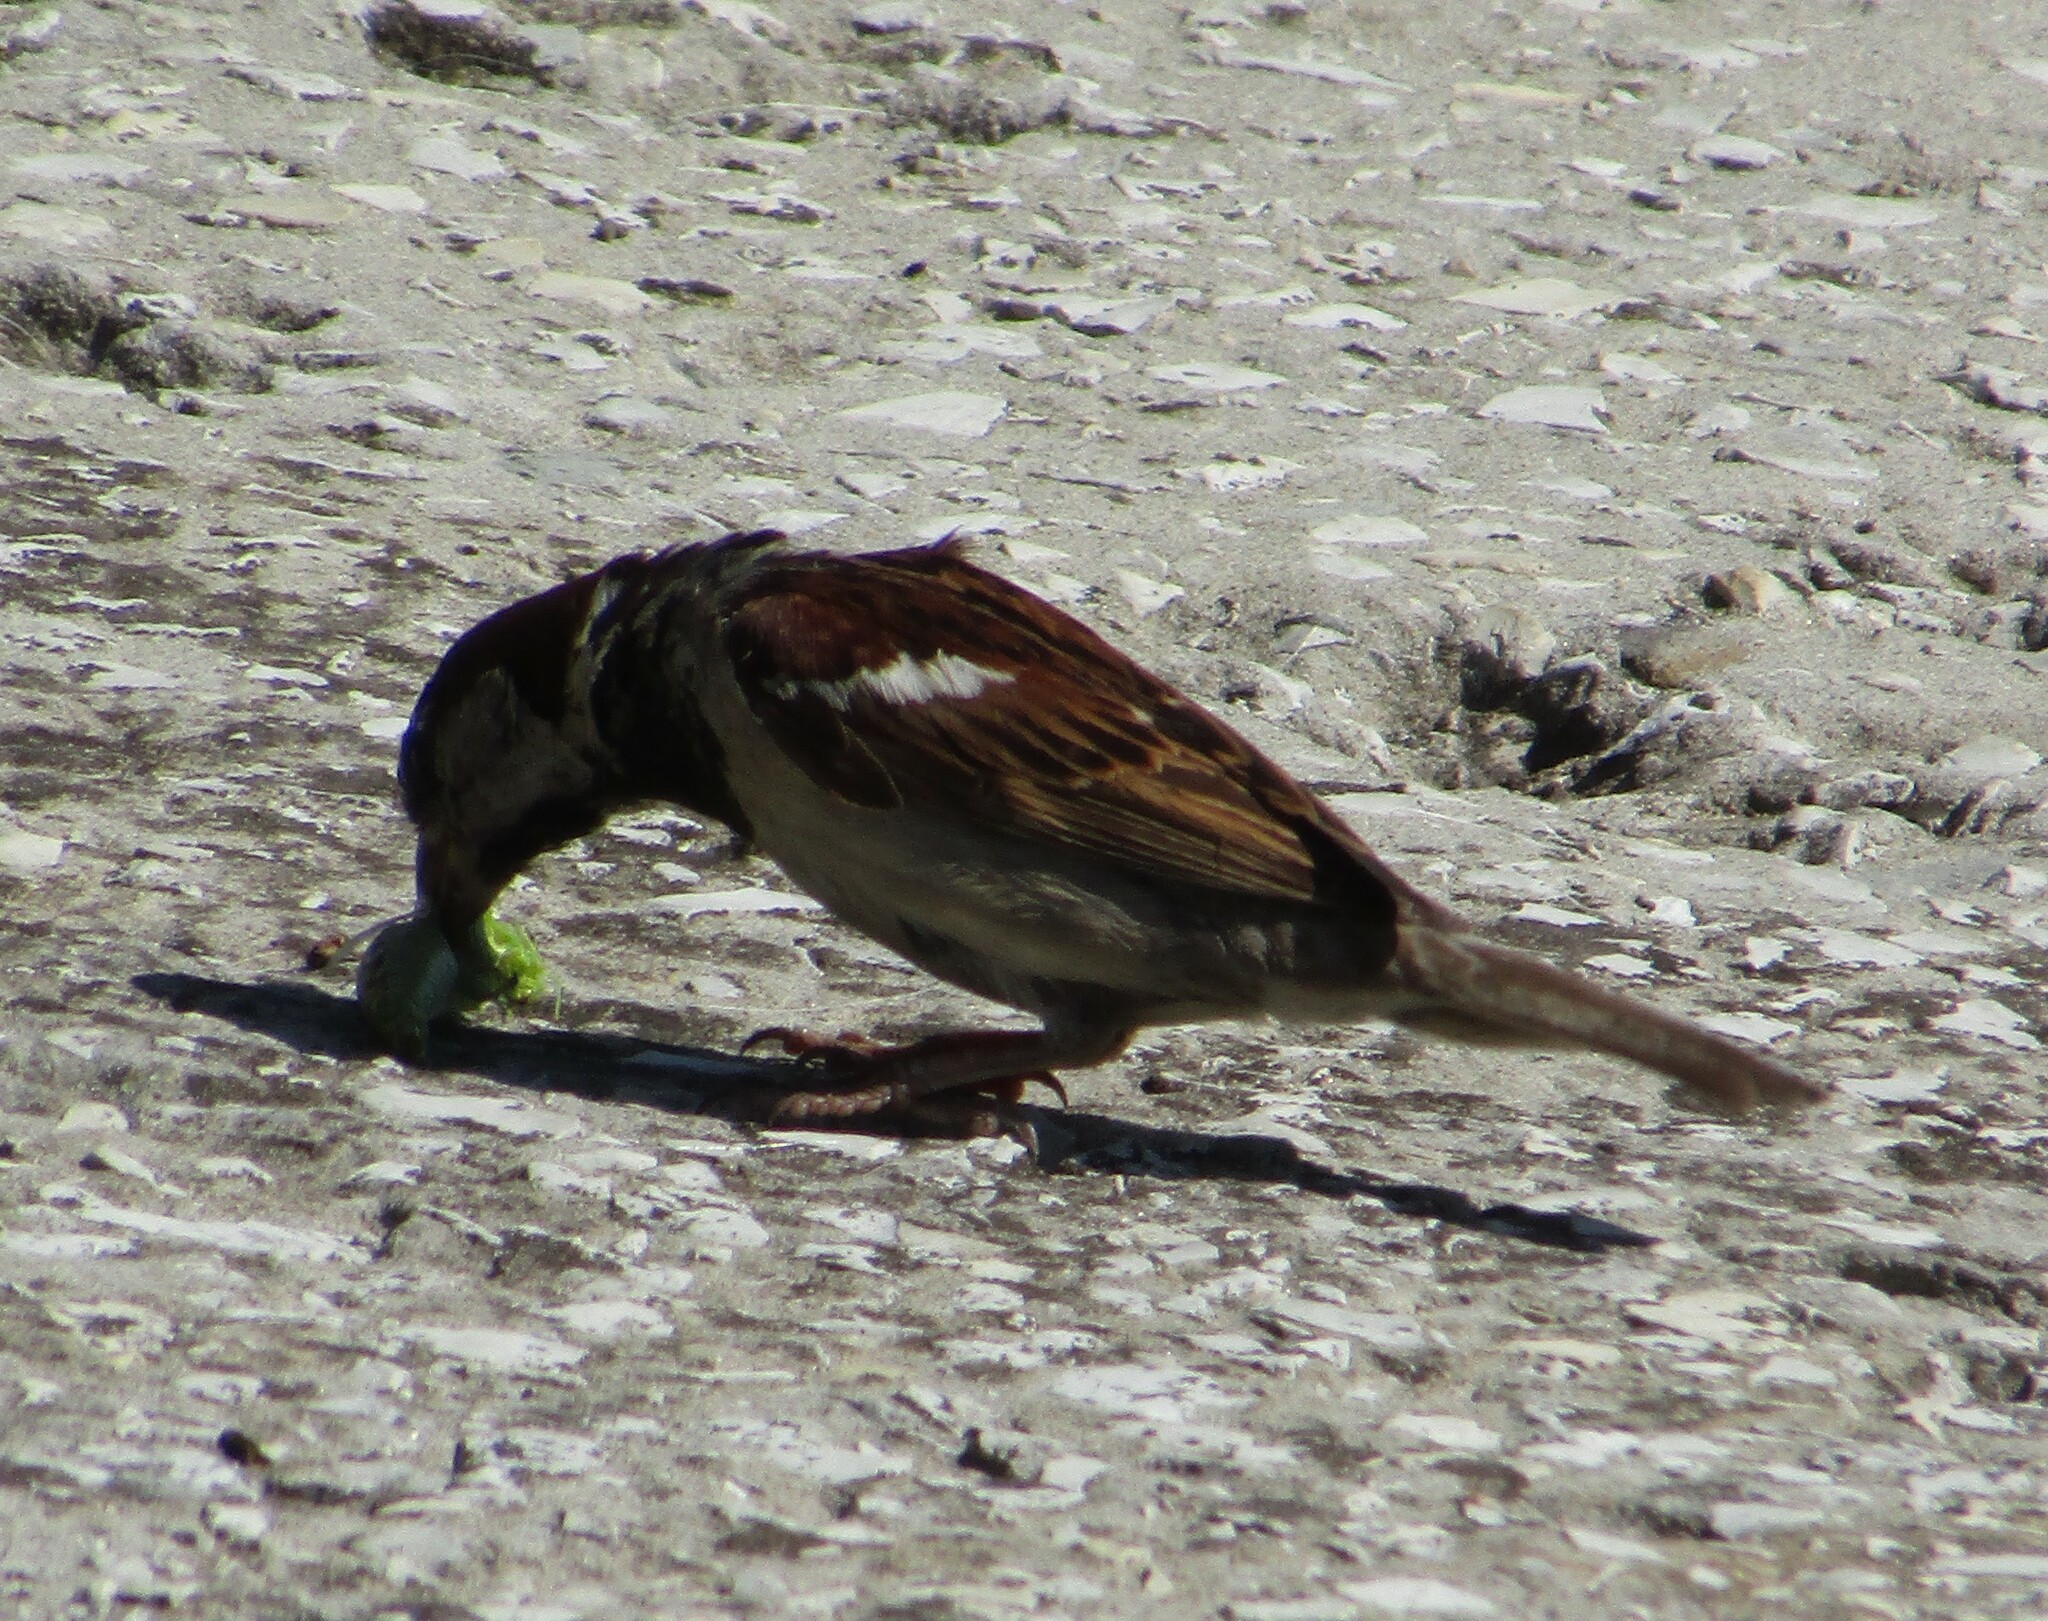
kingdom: Animalia
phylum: Chordata
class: Aves
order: Passeriformes
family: Passeridae
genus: Passer
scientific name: Passer domesticus
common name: House sparrow
